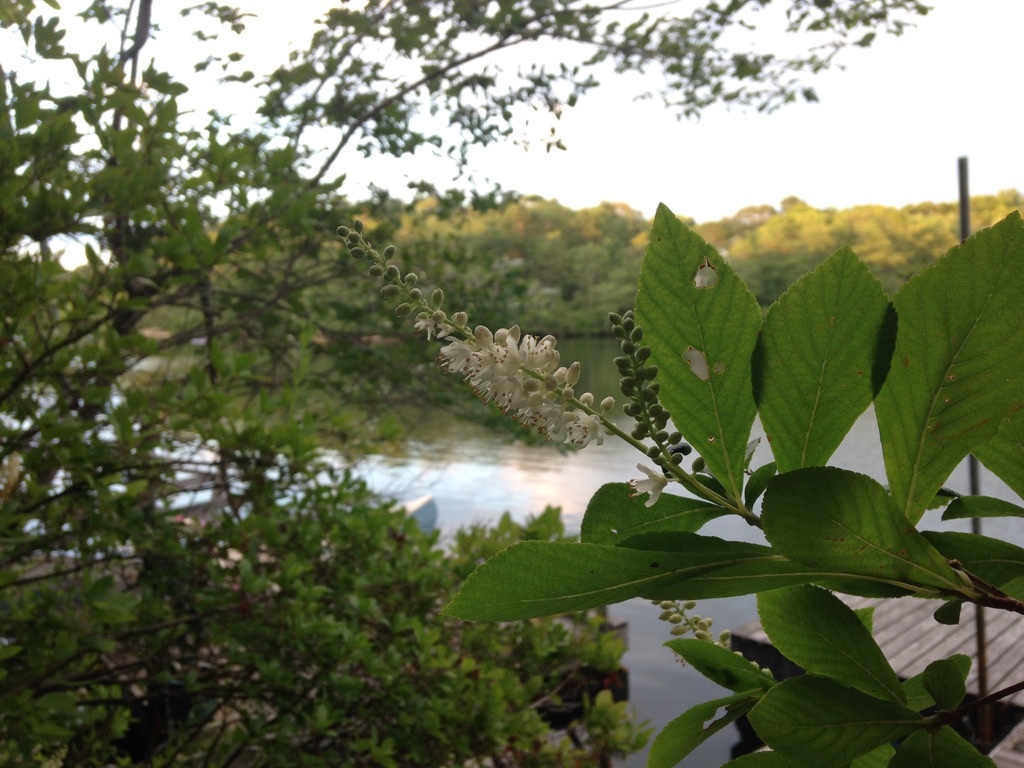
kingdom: Plantae
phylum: Tracheophyta
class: Magnoliopsida
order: Ericales
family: Clethraceae
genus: Clethra
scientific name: Clethra alnifolia
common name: Sweet pepperbush
